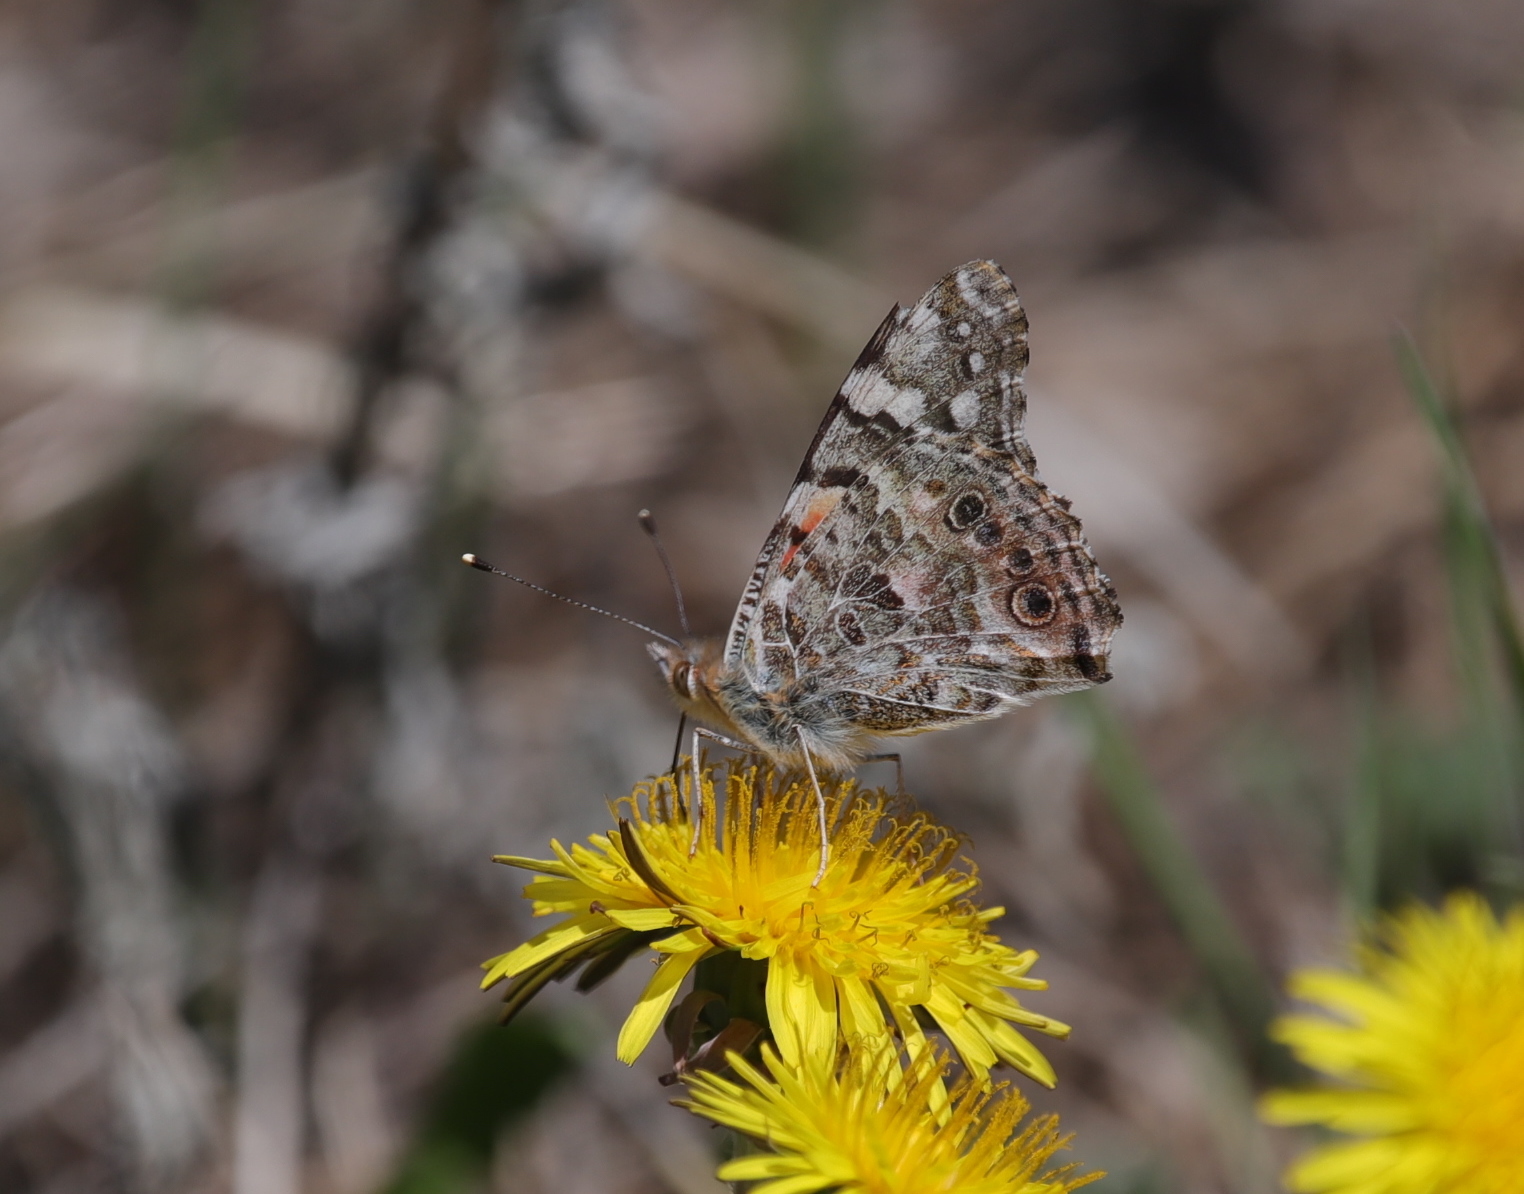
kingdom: Animalia
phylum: Arthropoda
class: Insecta
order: Lepidoptera
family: Nymphalidae
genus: Vanessa
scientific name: Vanessa cardui
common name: Painted lady
